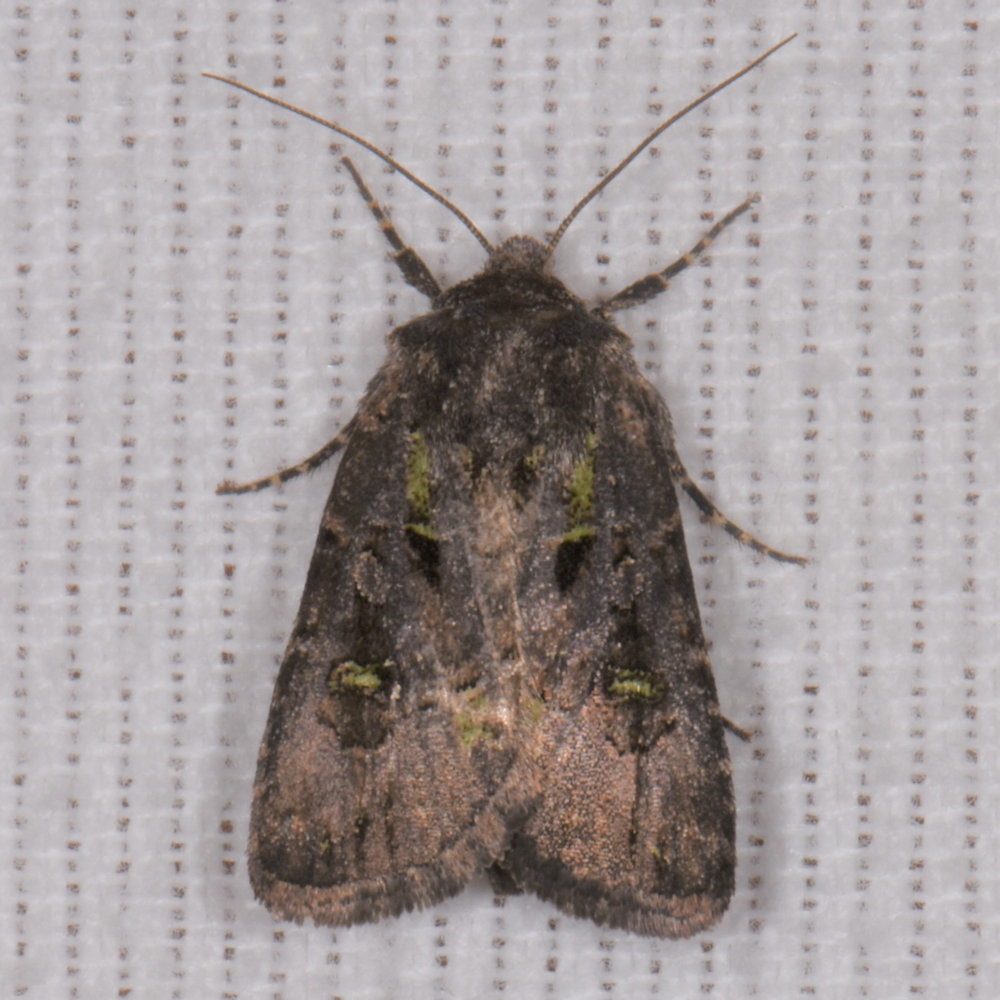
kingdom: Animalia
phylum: Arthropoda
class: Insecta
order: Lepidoptera
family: Noctuidae
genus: Lacinipolia
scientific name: Lacinipolia renigera
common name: Kidney-spotted minor
